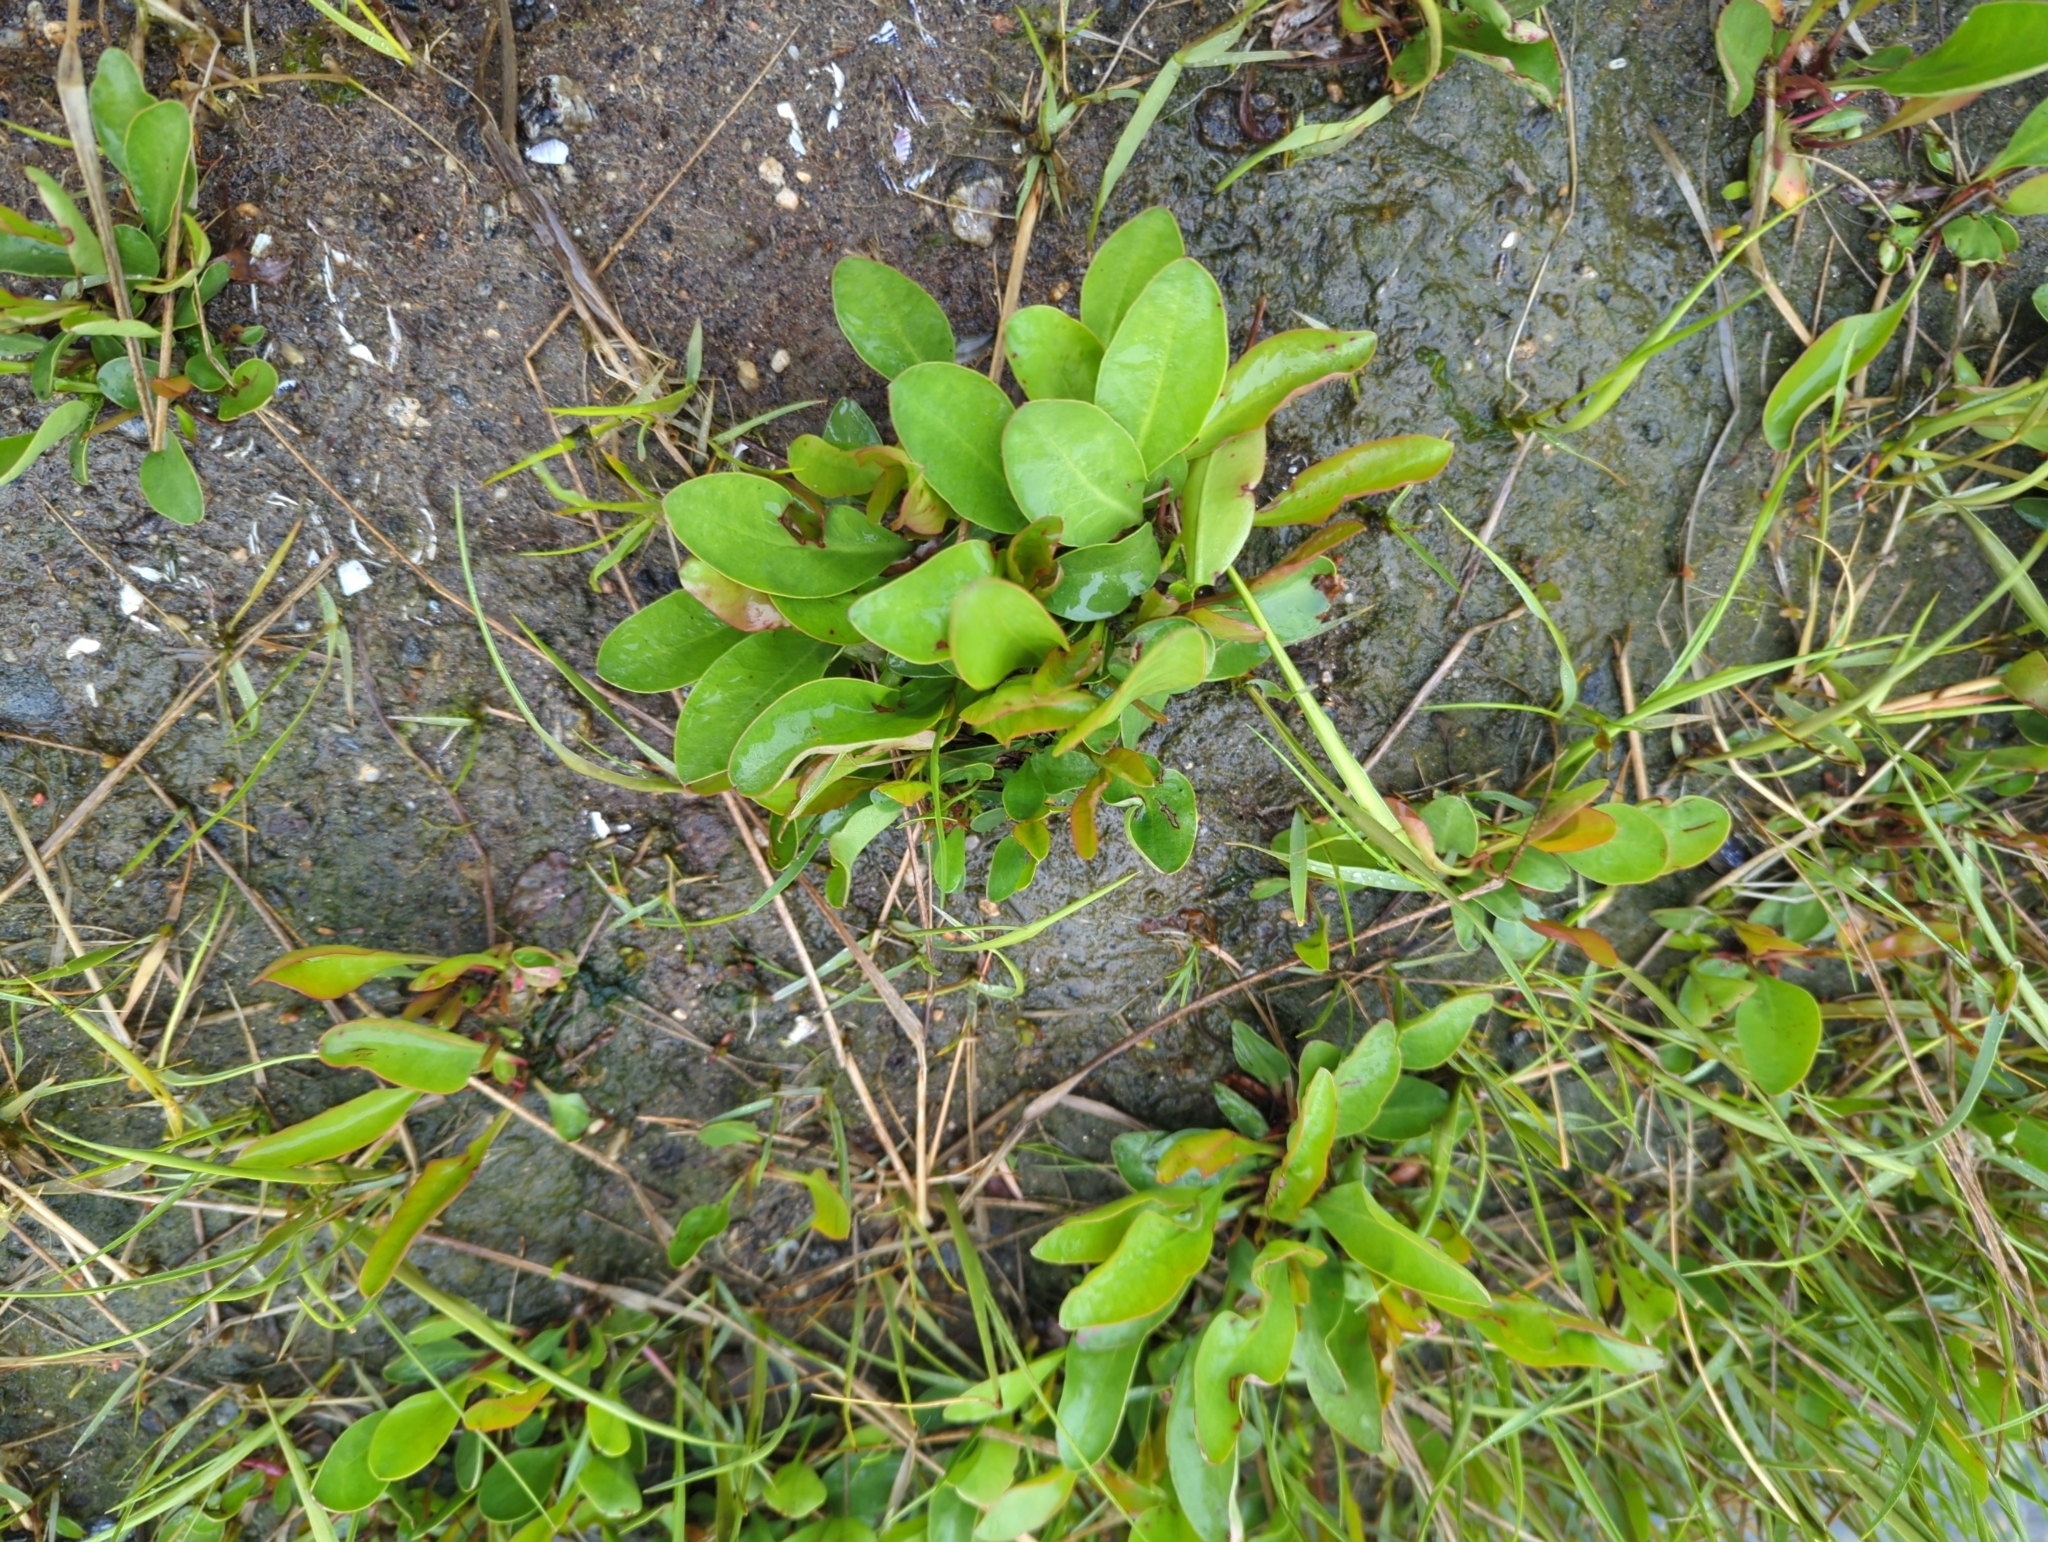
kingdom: Plantae
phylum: Tracheophyta
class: Magnoliopsida
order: Caryophyllales
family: Plumbaginaceae
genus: Limonium
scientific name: Limonium carolinianum
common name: Carolina sea lavender
